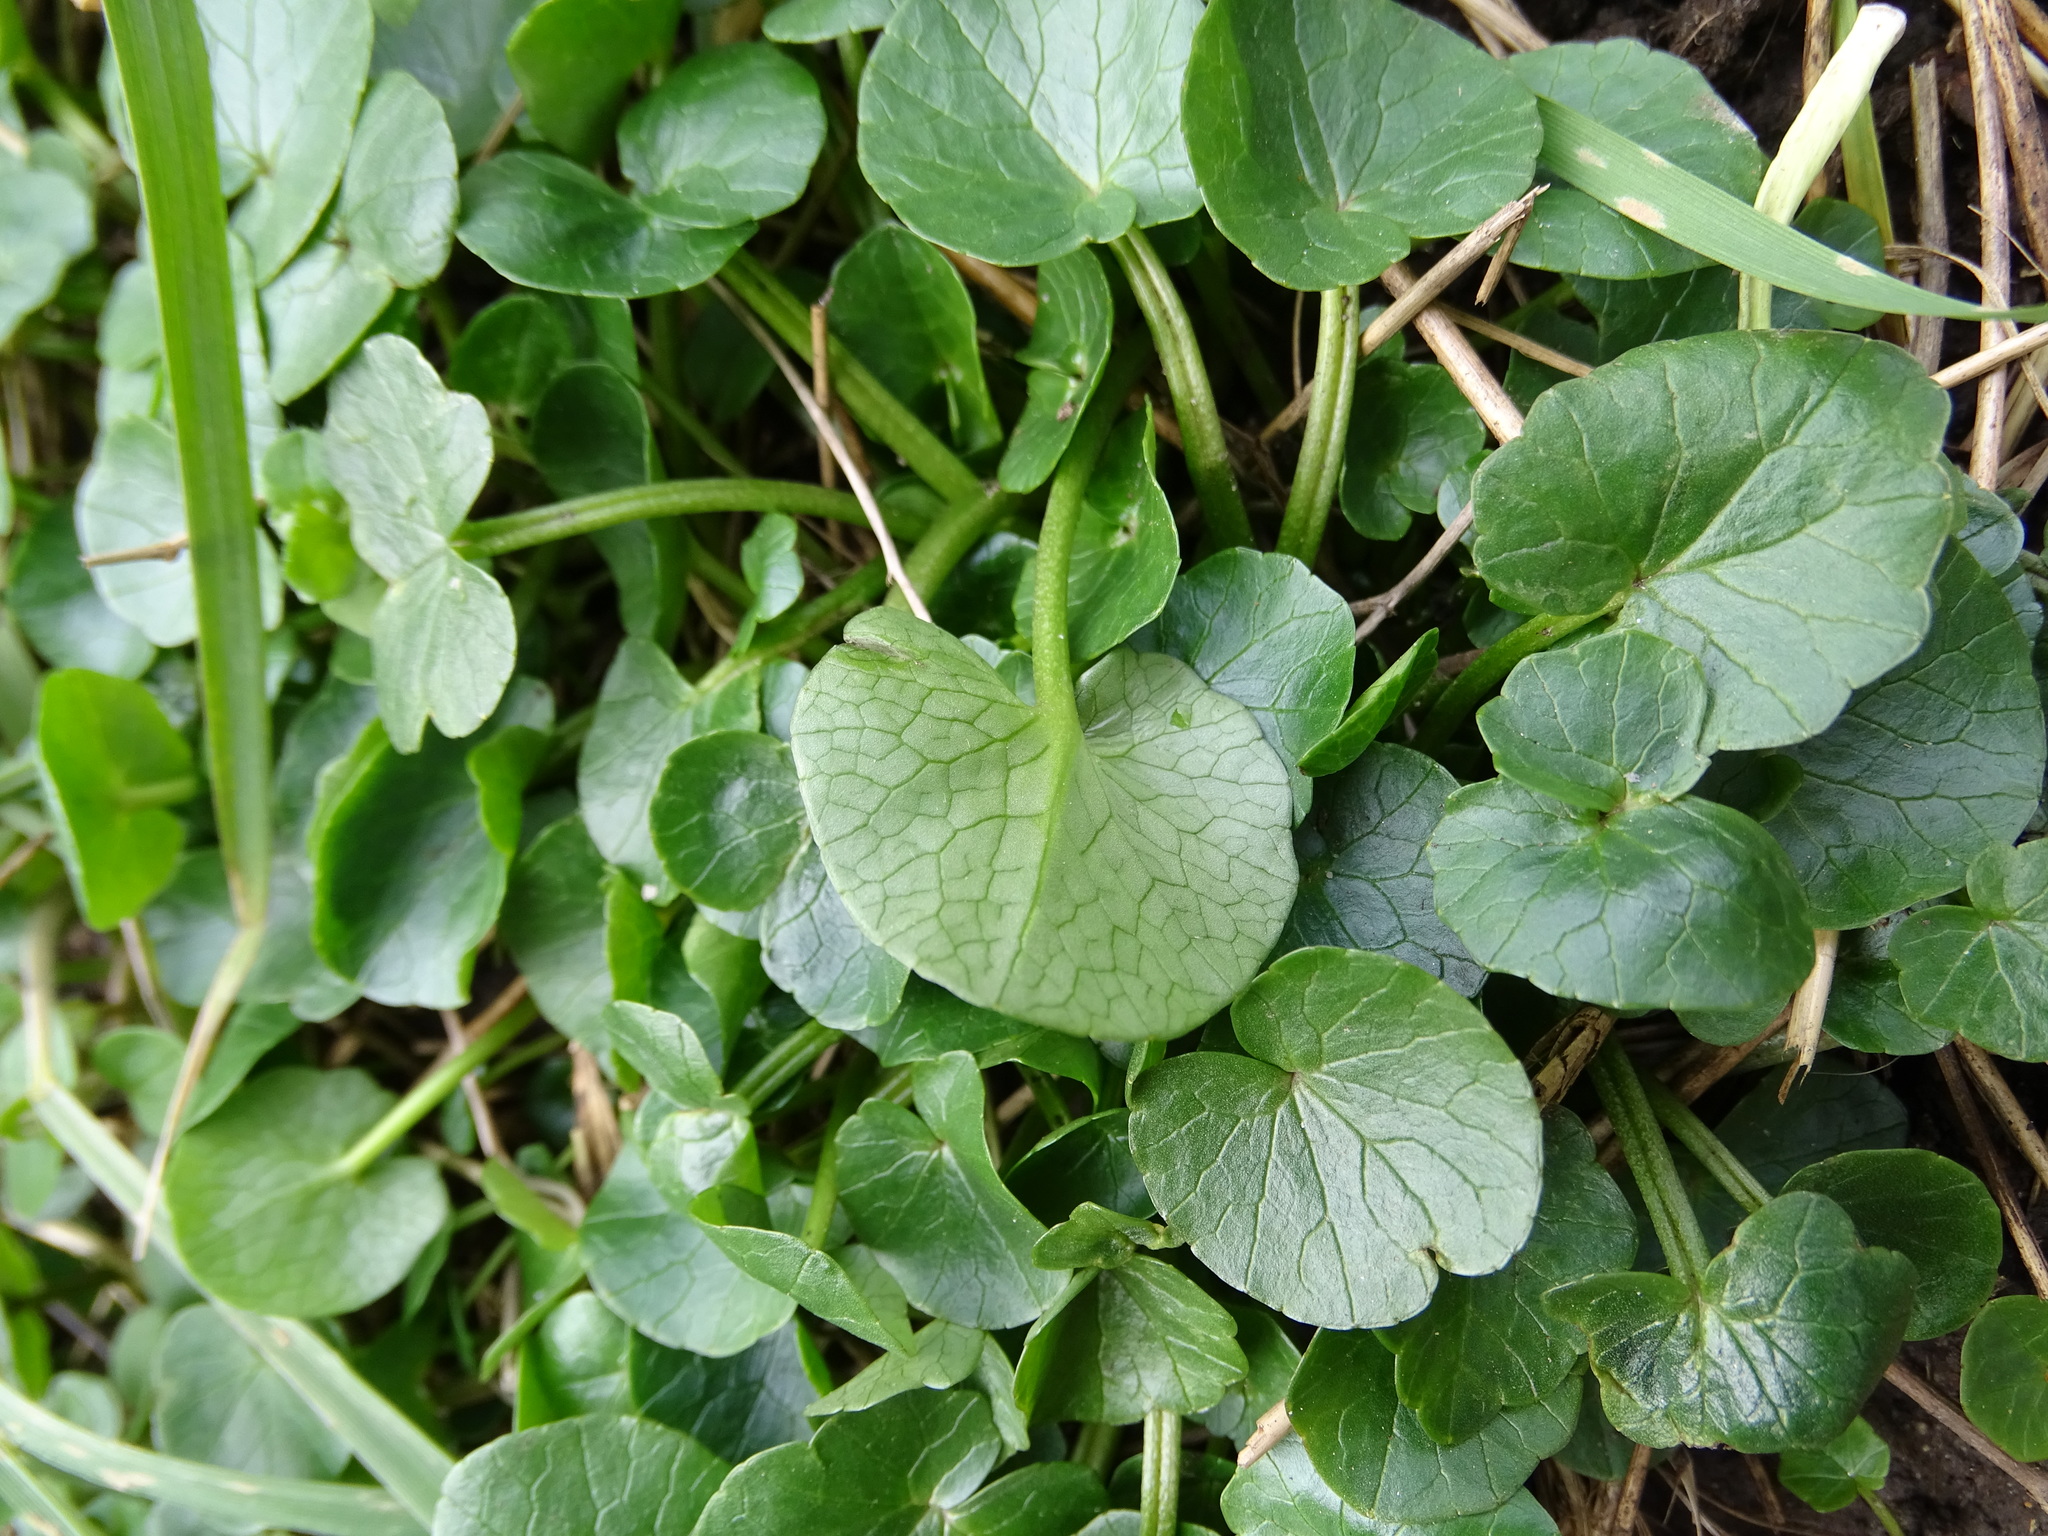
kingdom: Plantae
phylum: Tracheophyta
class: Magnoliopsida
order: Ranunculales
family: Ranunculaceae
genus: Ficaria
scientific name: Ficaria verna
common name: Lesser celandine
